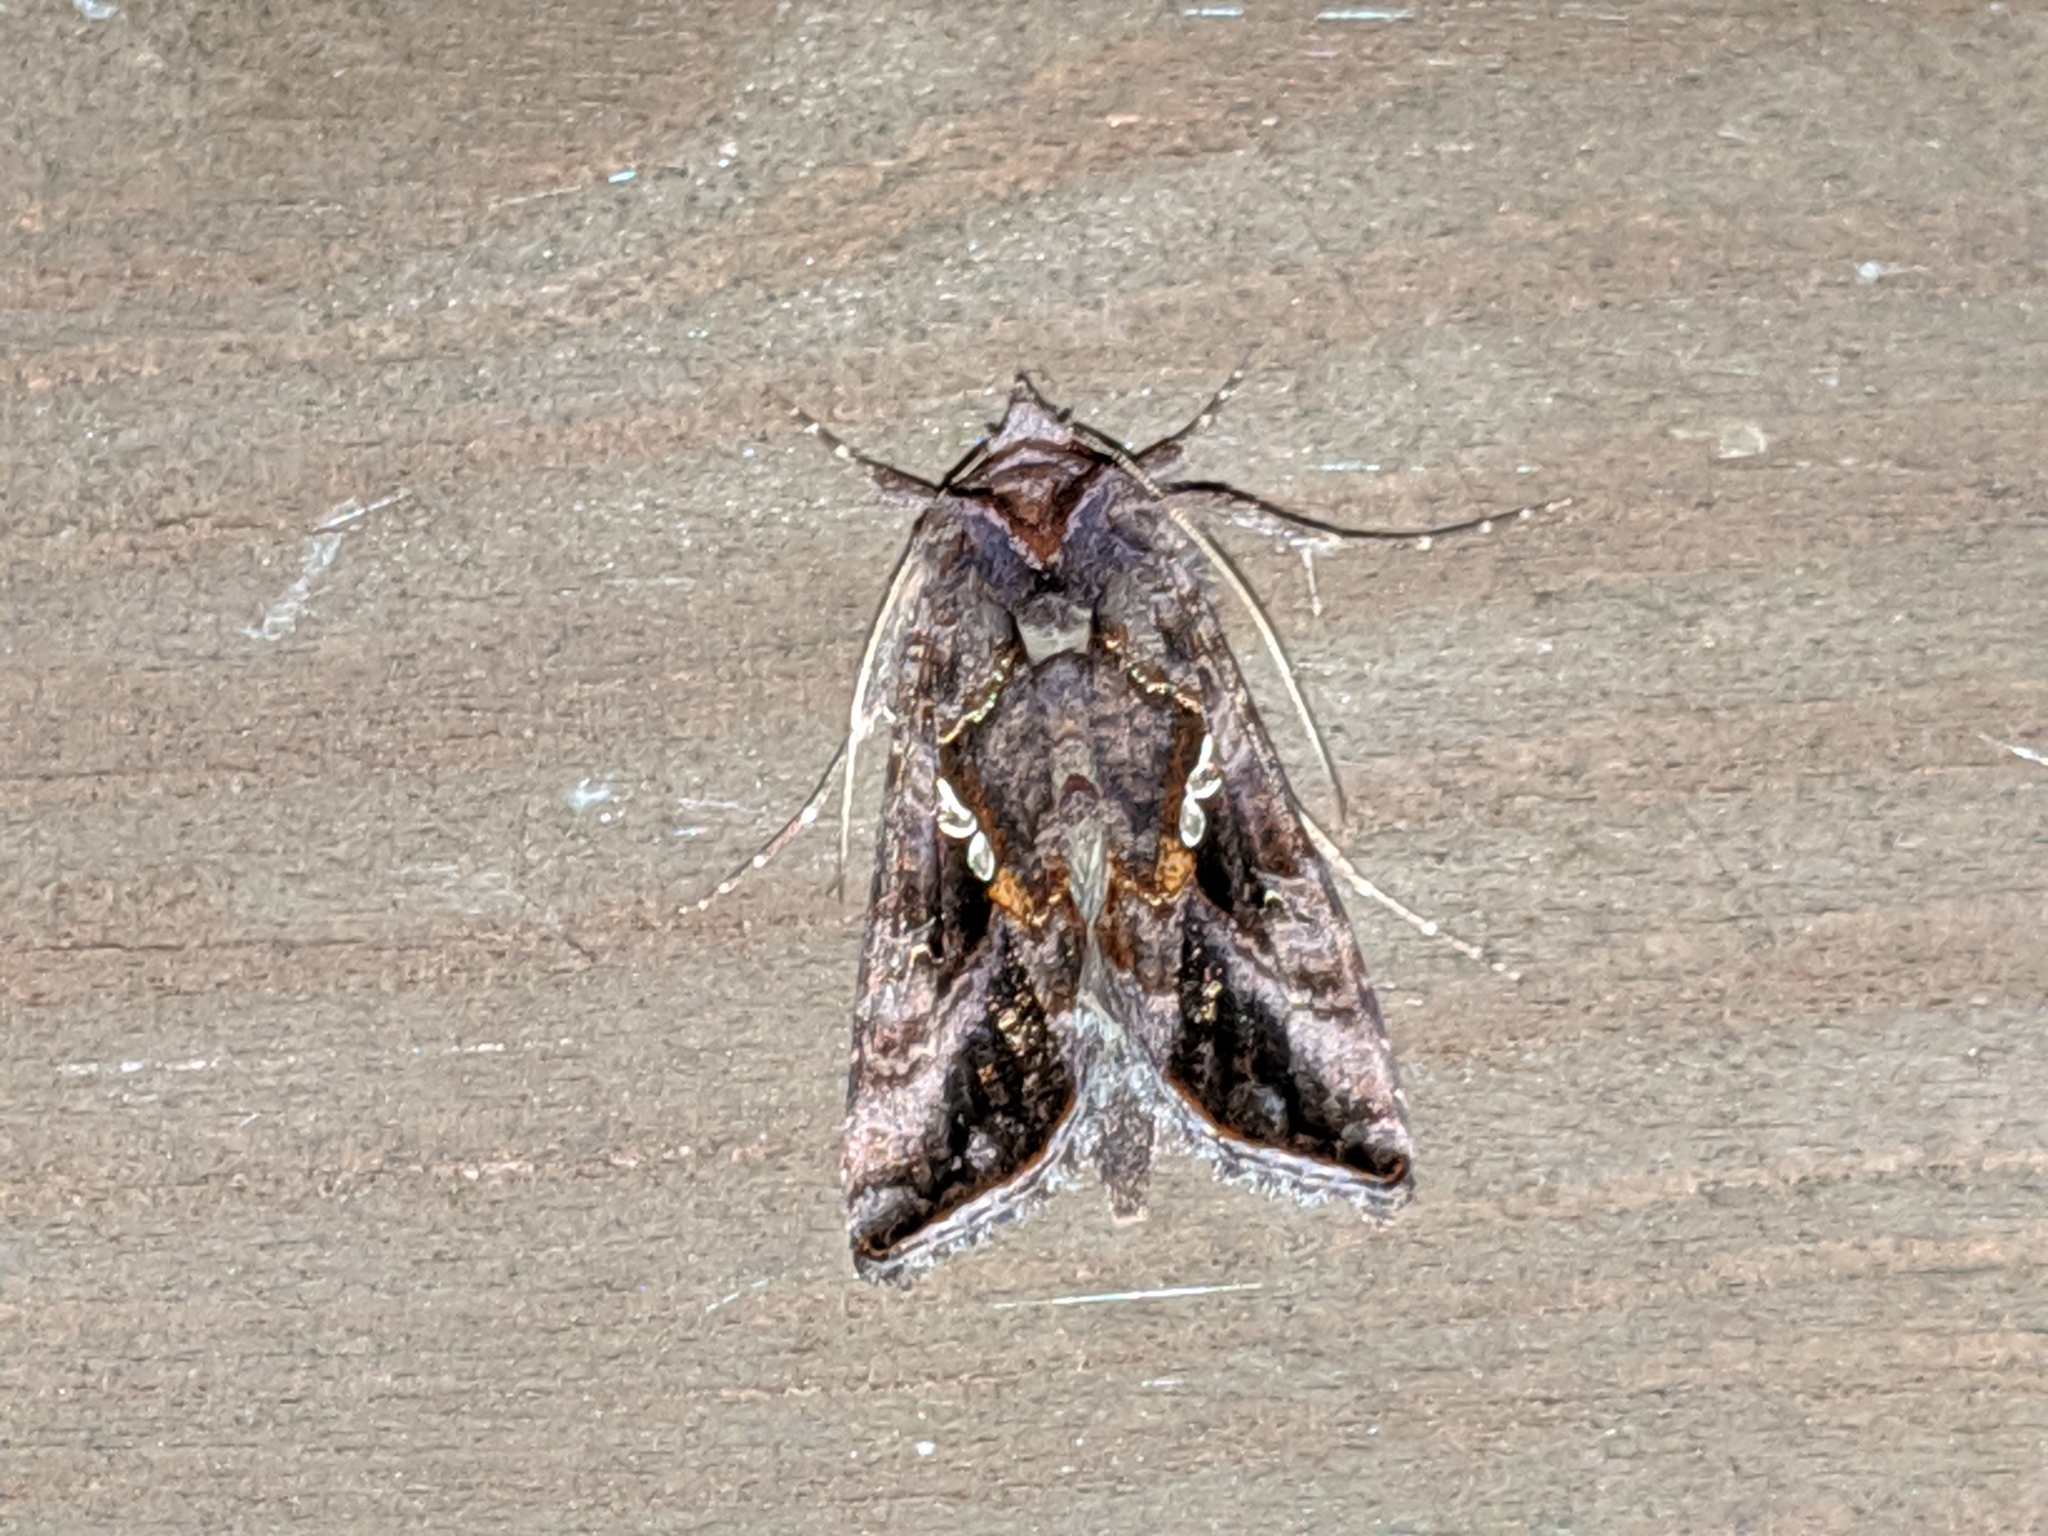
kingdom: Animalia
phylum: Arthropoda
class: Insecta
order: Lepidoptera
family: Noctuidae
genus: Autographa
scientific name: Autographa precationis
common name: Common looper moth
